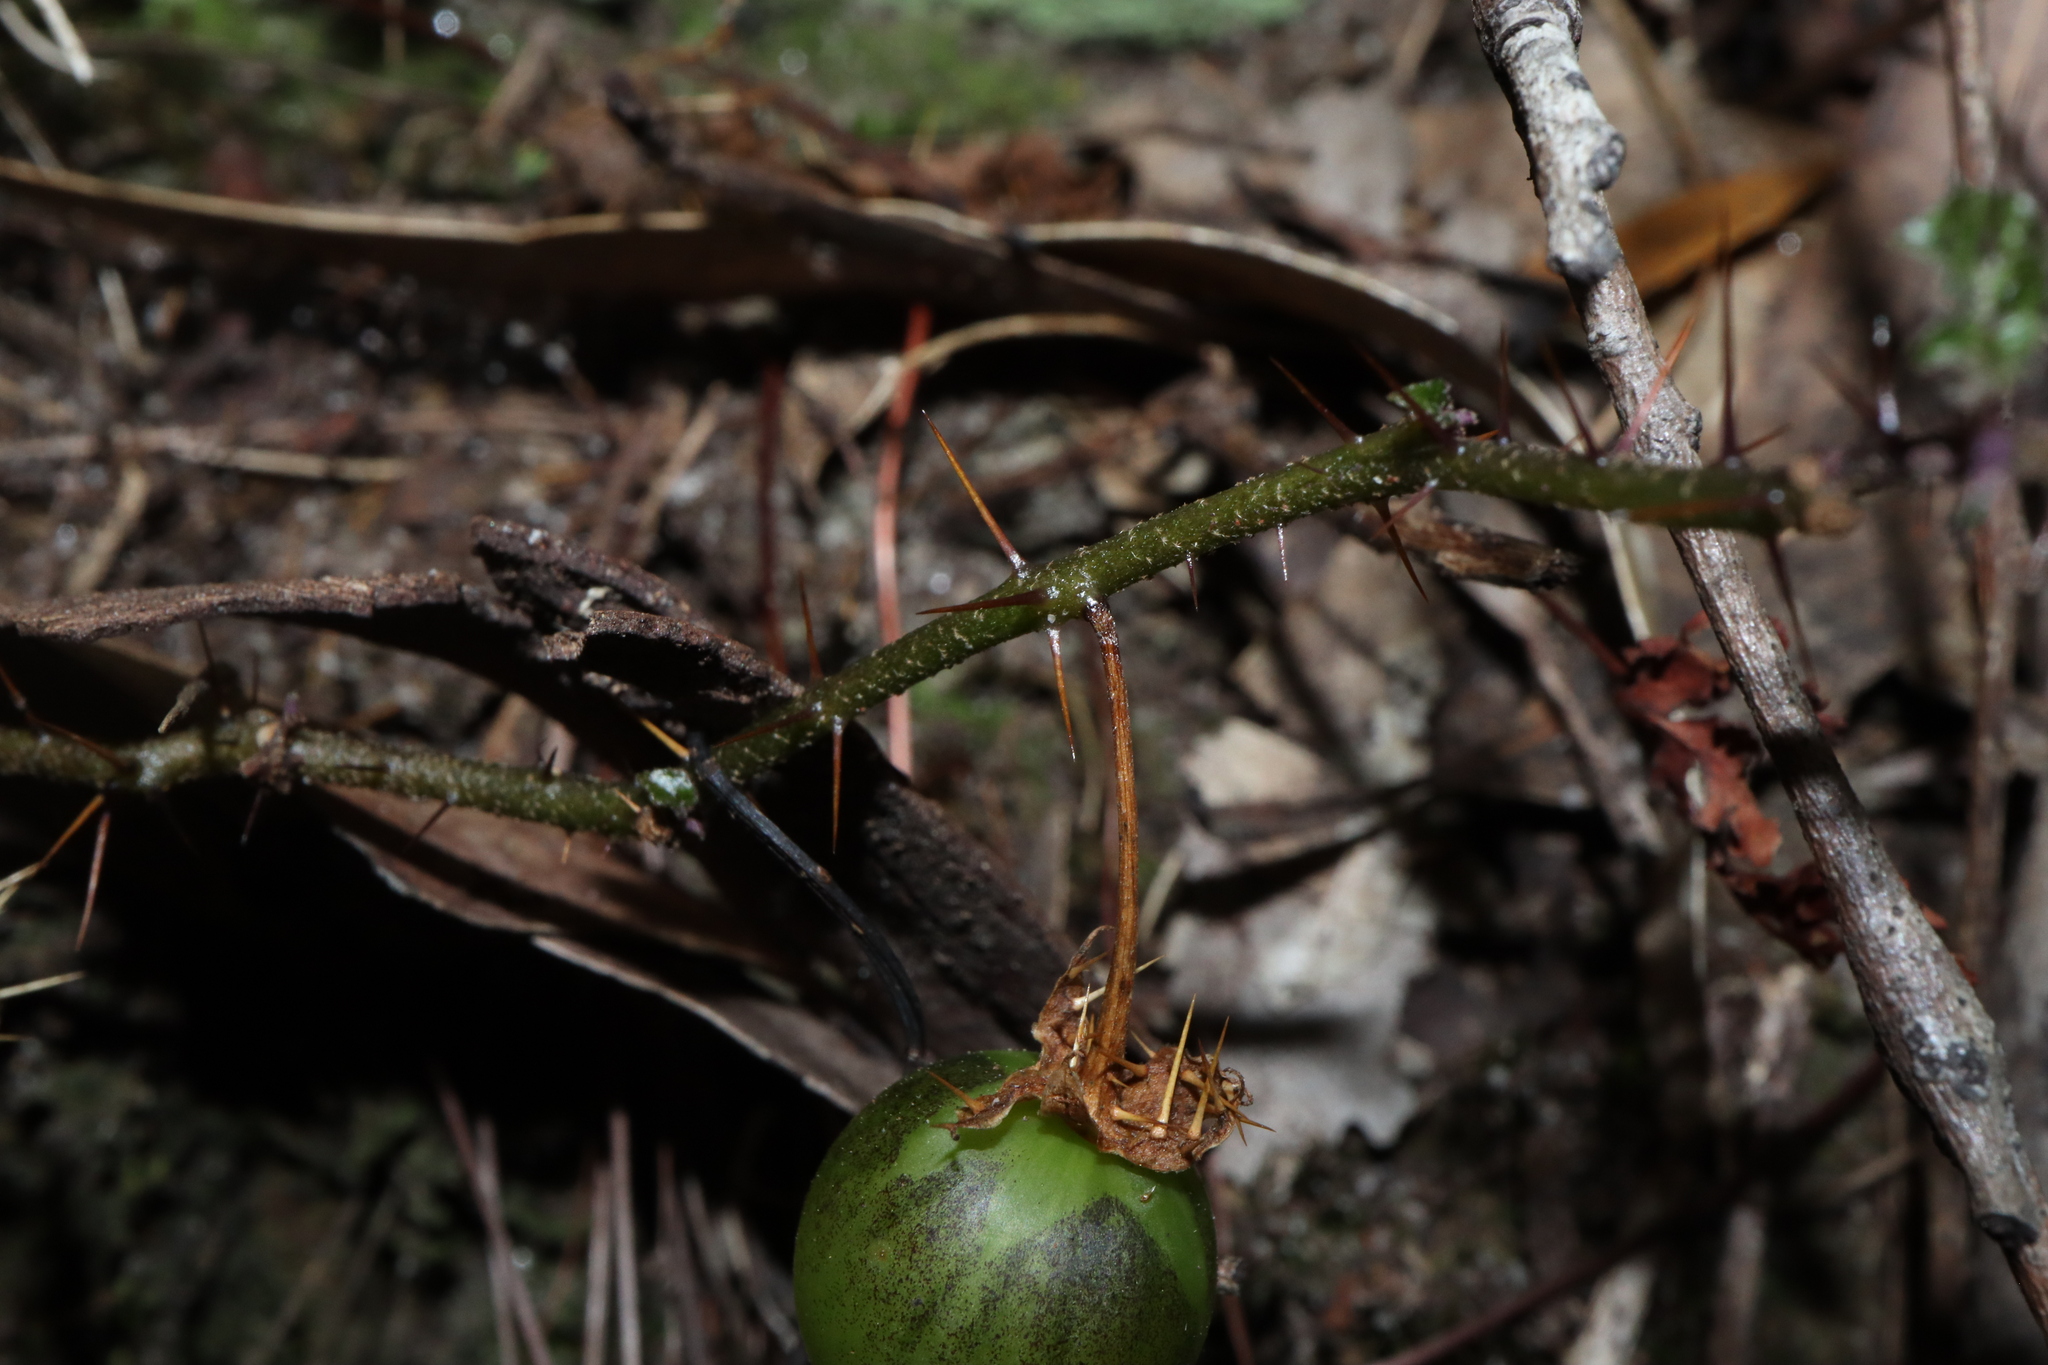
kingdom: Plantae
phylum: Tracheophyta
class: Magnoliopsida
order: Solanales
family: Solanaceae
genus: Solanum
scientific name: Solanum prinophyllum
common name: Forest nightshade
